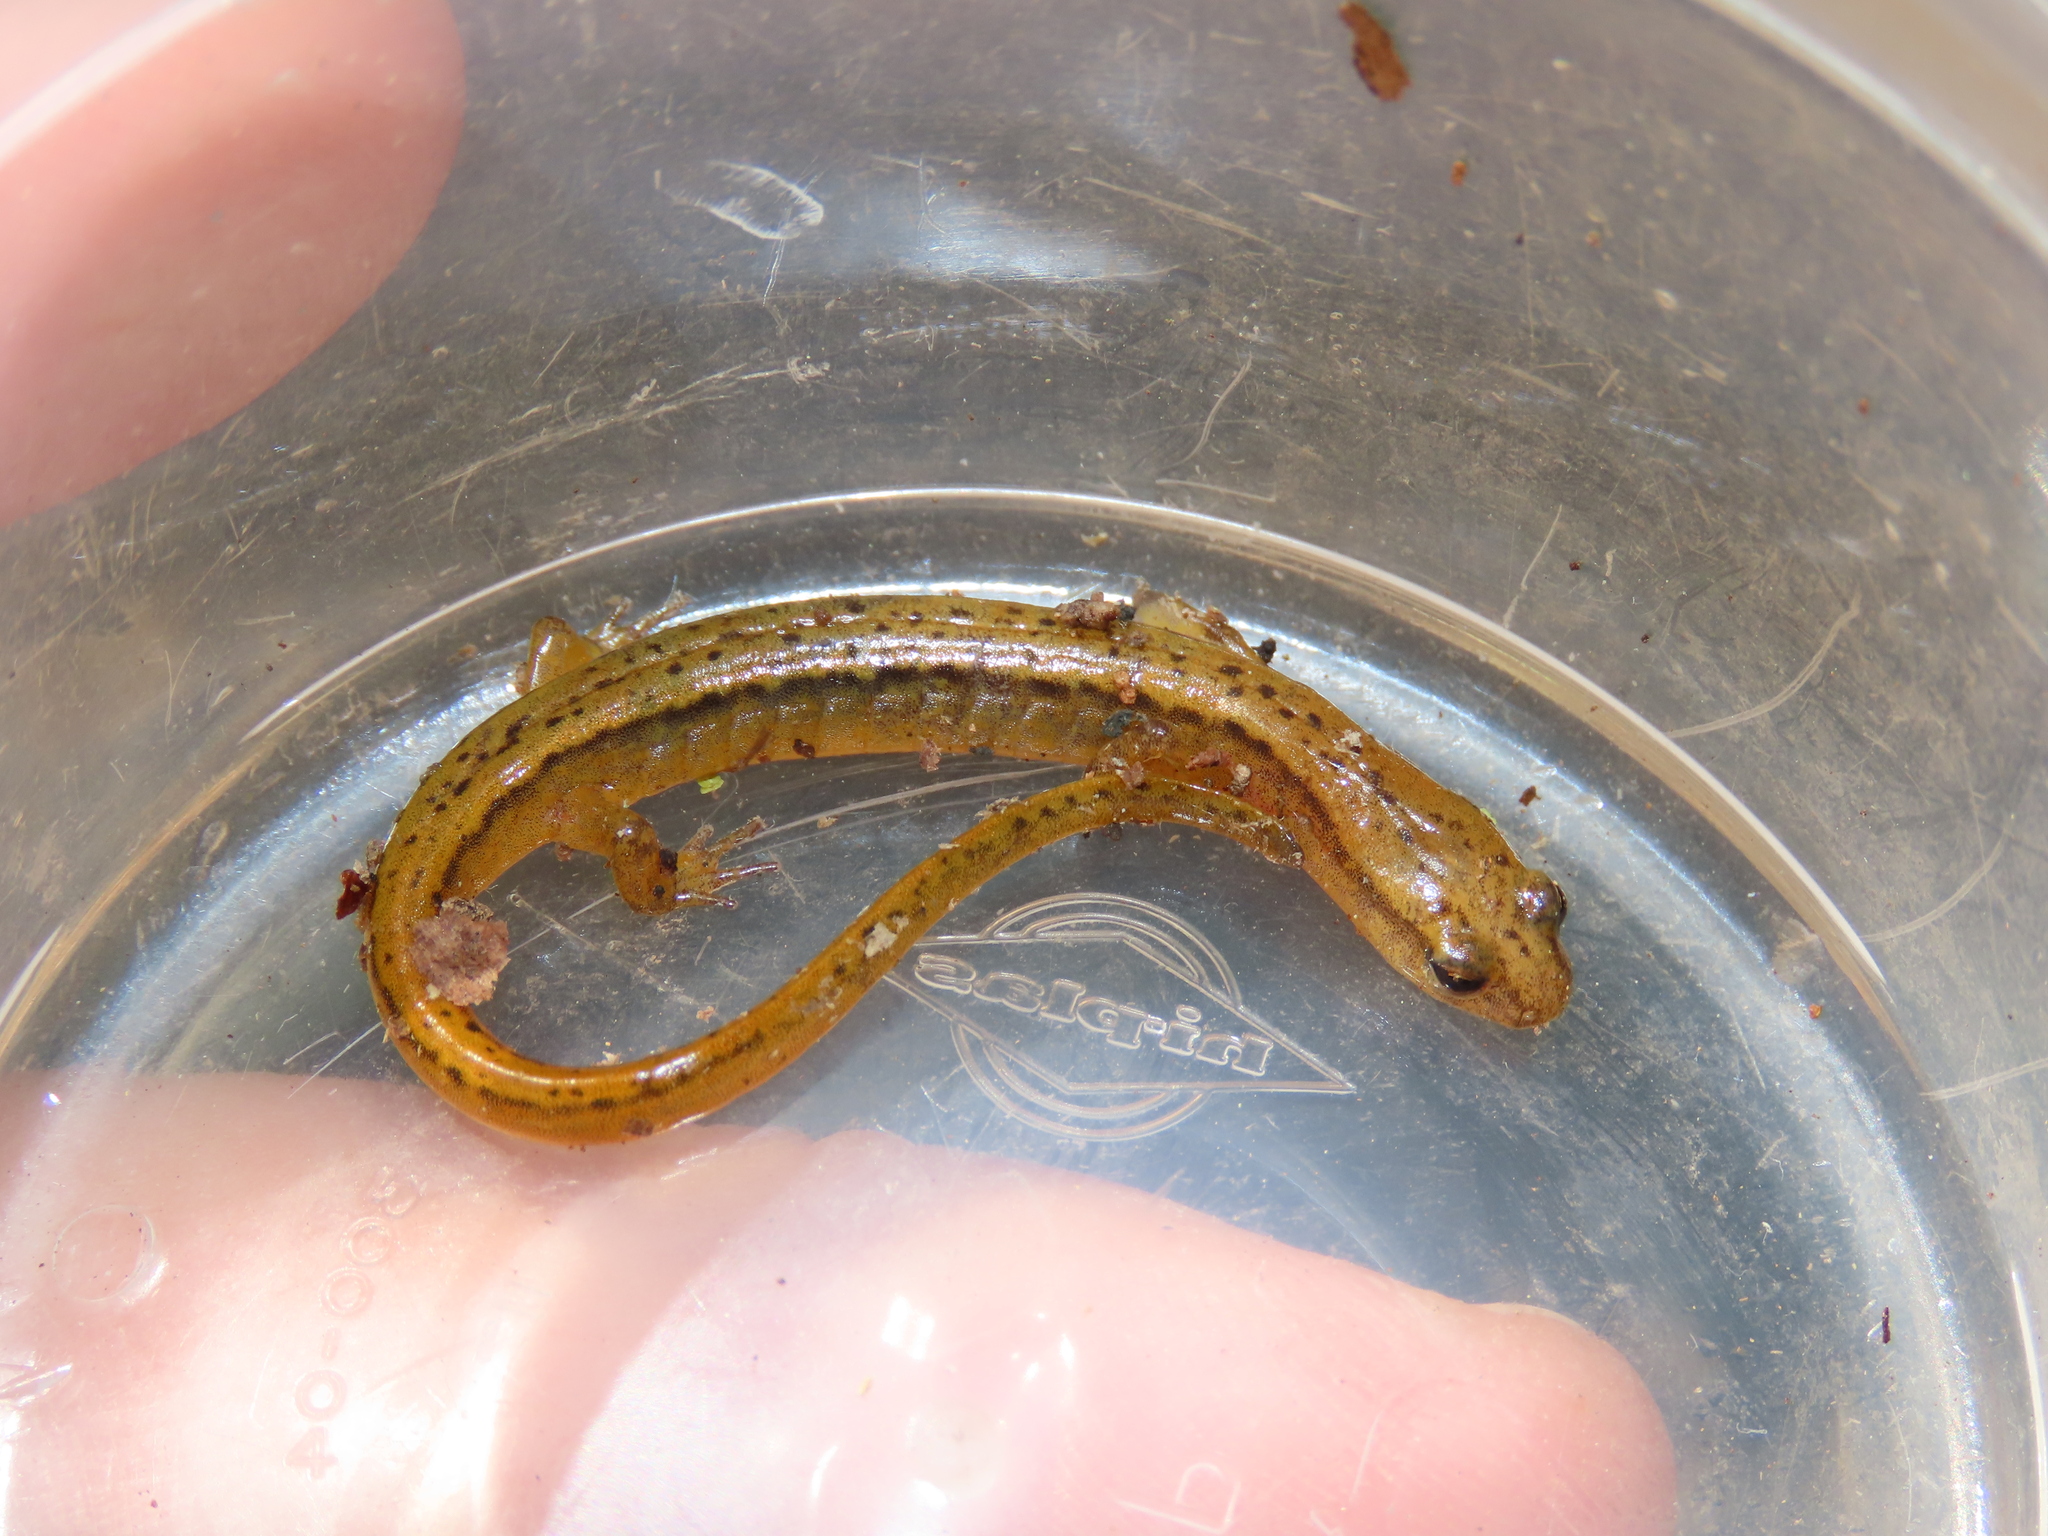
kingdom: Animalia
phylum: Chordata
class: Amphibia
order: Caudata
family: Plethodontidae
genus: Eurycea
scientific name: Eurycea bislineata
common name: Northern two-lined salamander
